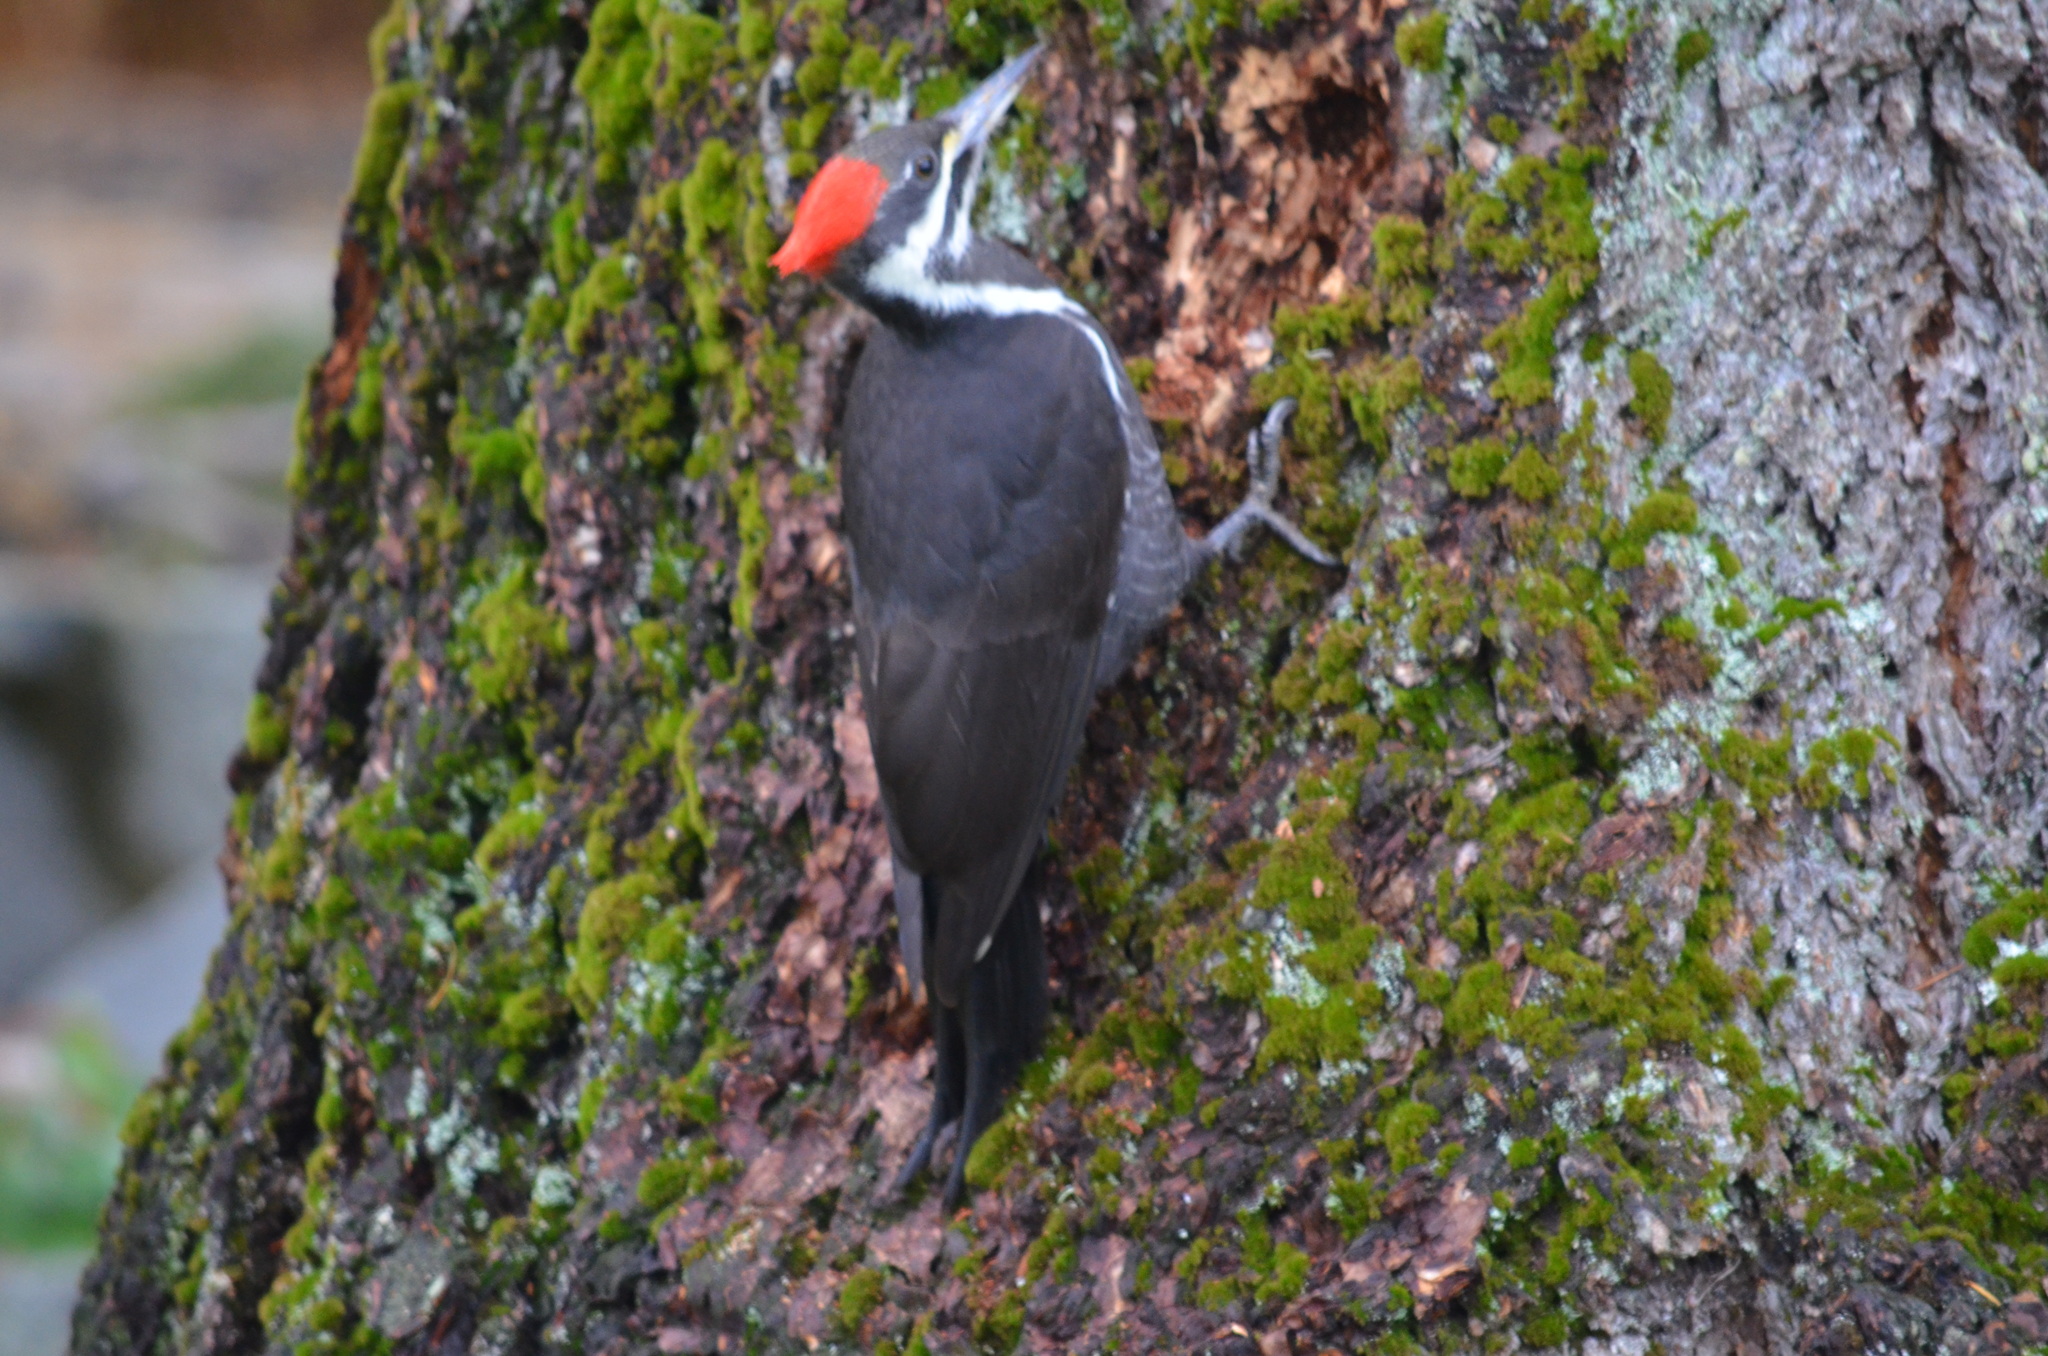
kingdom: Animalia
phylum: Chordata
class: Aves
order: Piciformes
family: Picidae
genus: Dryocopus
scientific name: Dryocopus pileatus
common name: Pileated woodpecker
